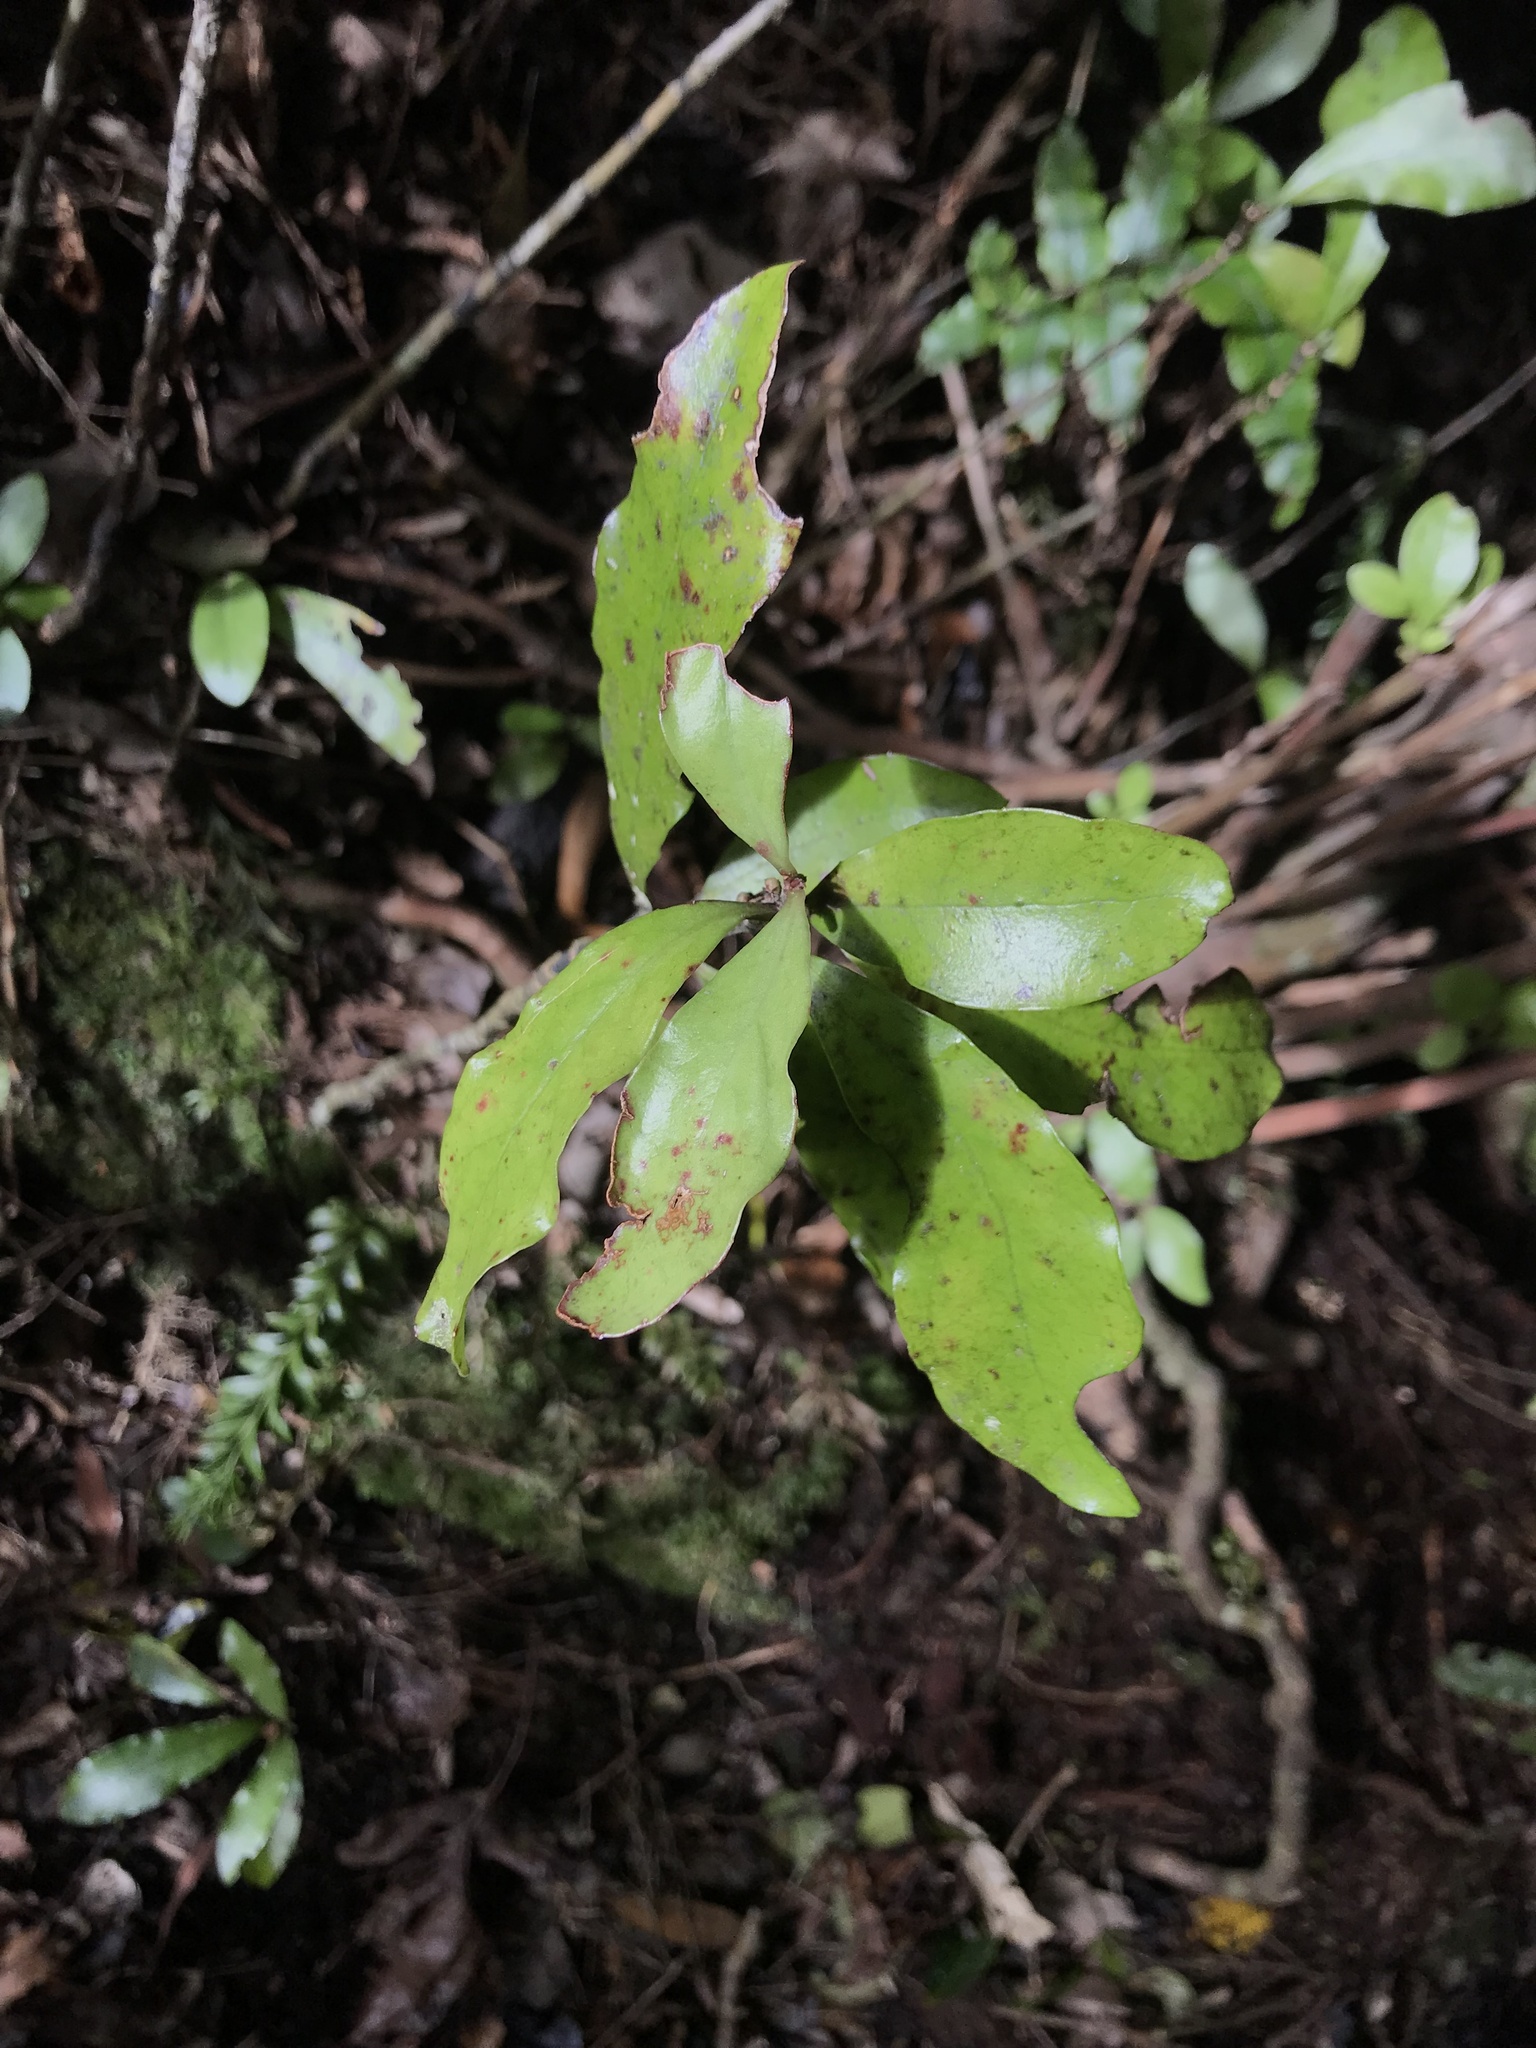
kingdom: Plantae
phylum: Tracheophyta
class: Magnoliopsida
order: Asterales
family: Alseuosmiaceae
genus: Alseuosmia
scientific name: Alseuosmia pusilla
